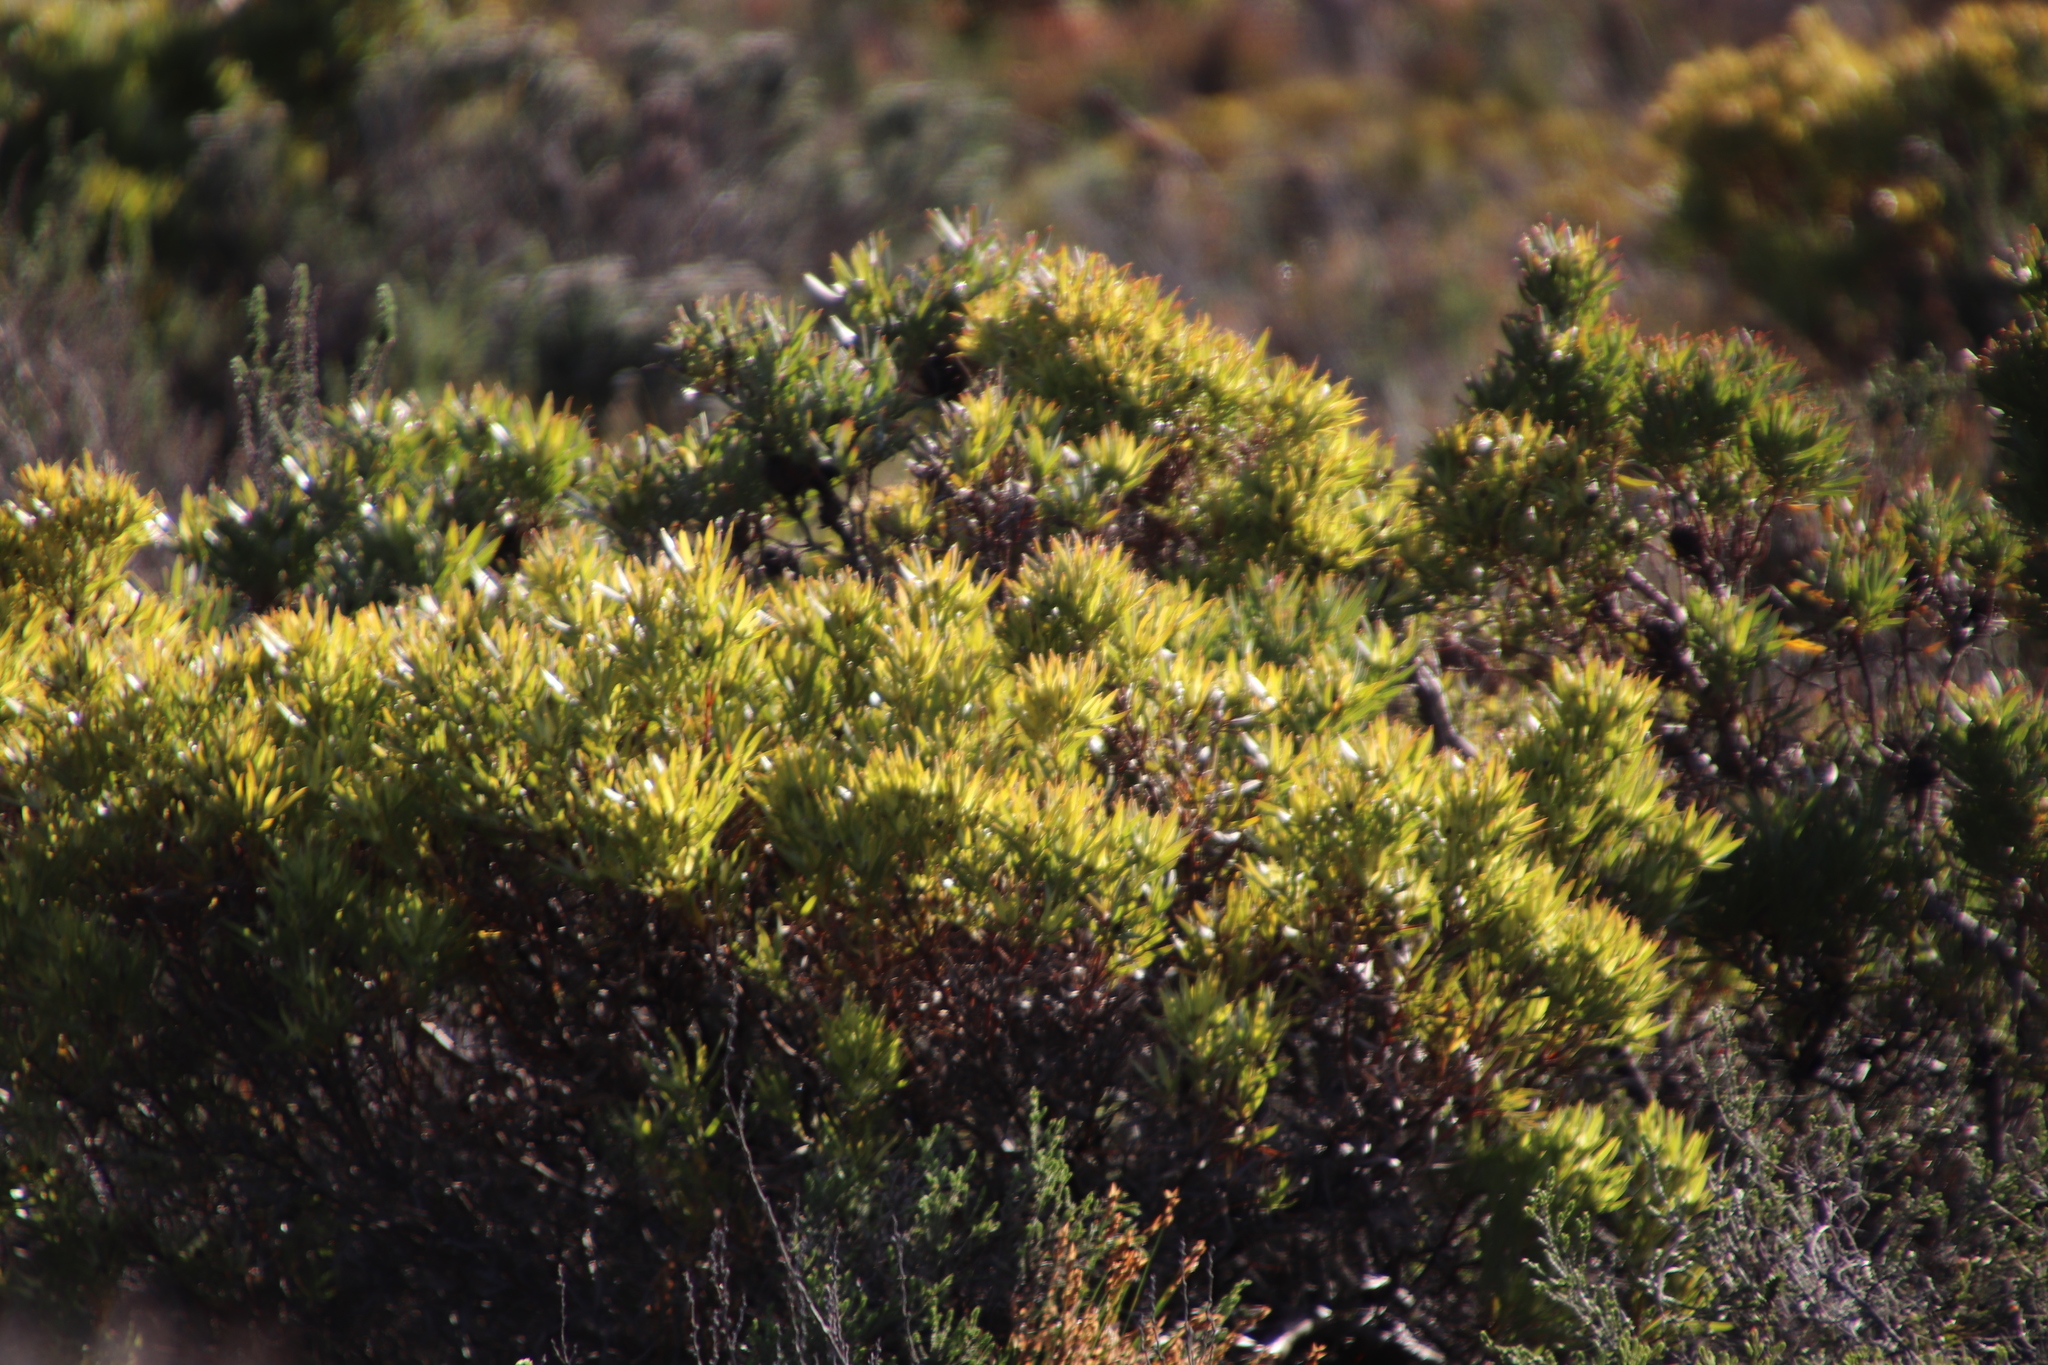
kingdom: Plantae
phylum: Tracheophyta
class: Magnoliopsida
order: Proteales
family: Proteaceae
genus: Leucadendron
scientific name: Leucadendron xanthoconus
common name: Sickle-leaf conebush
